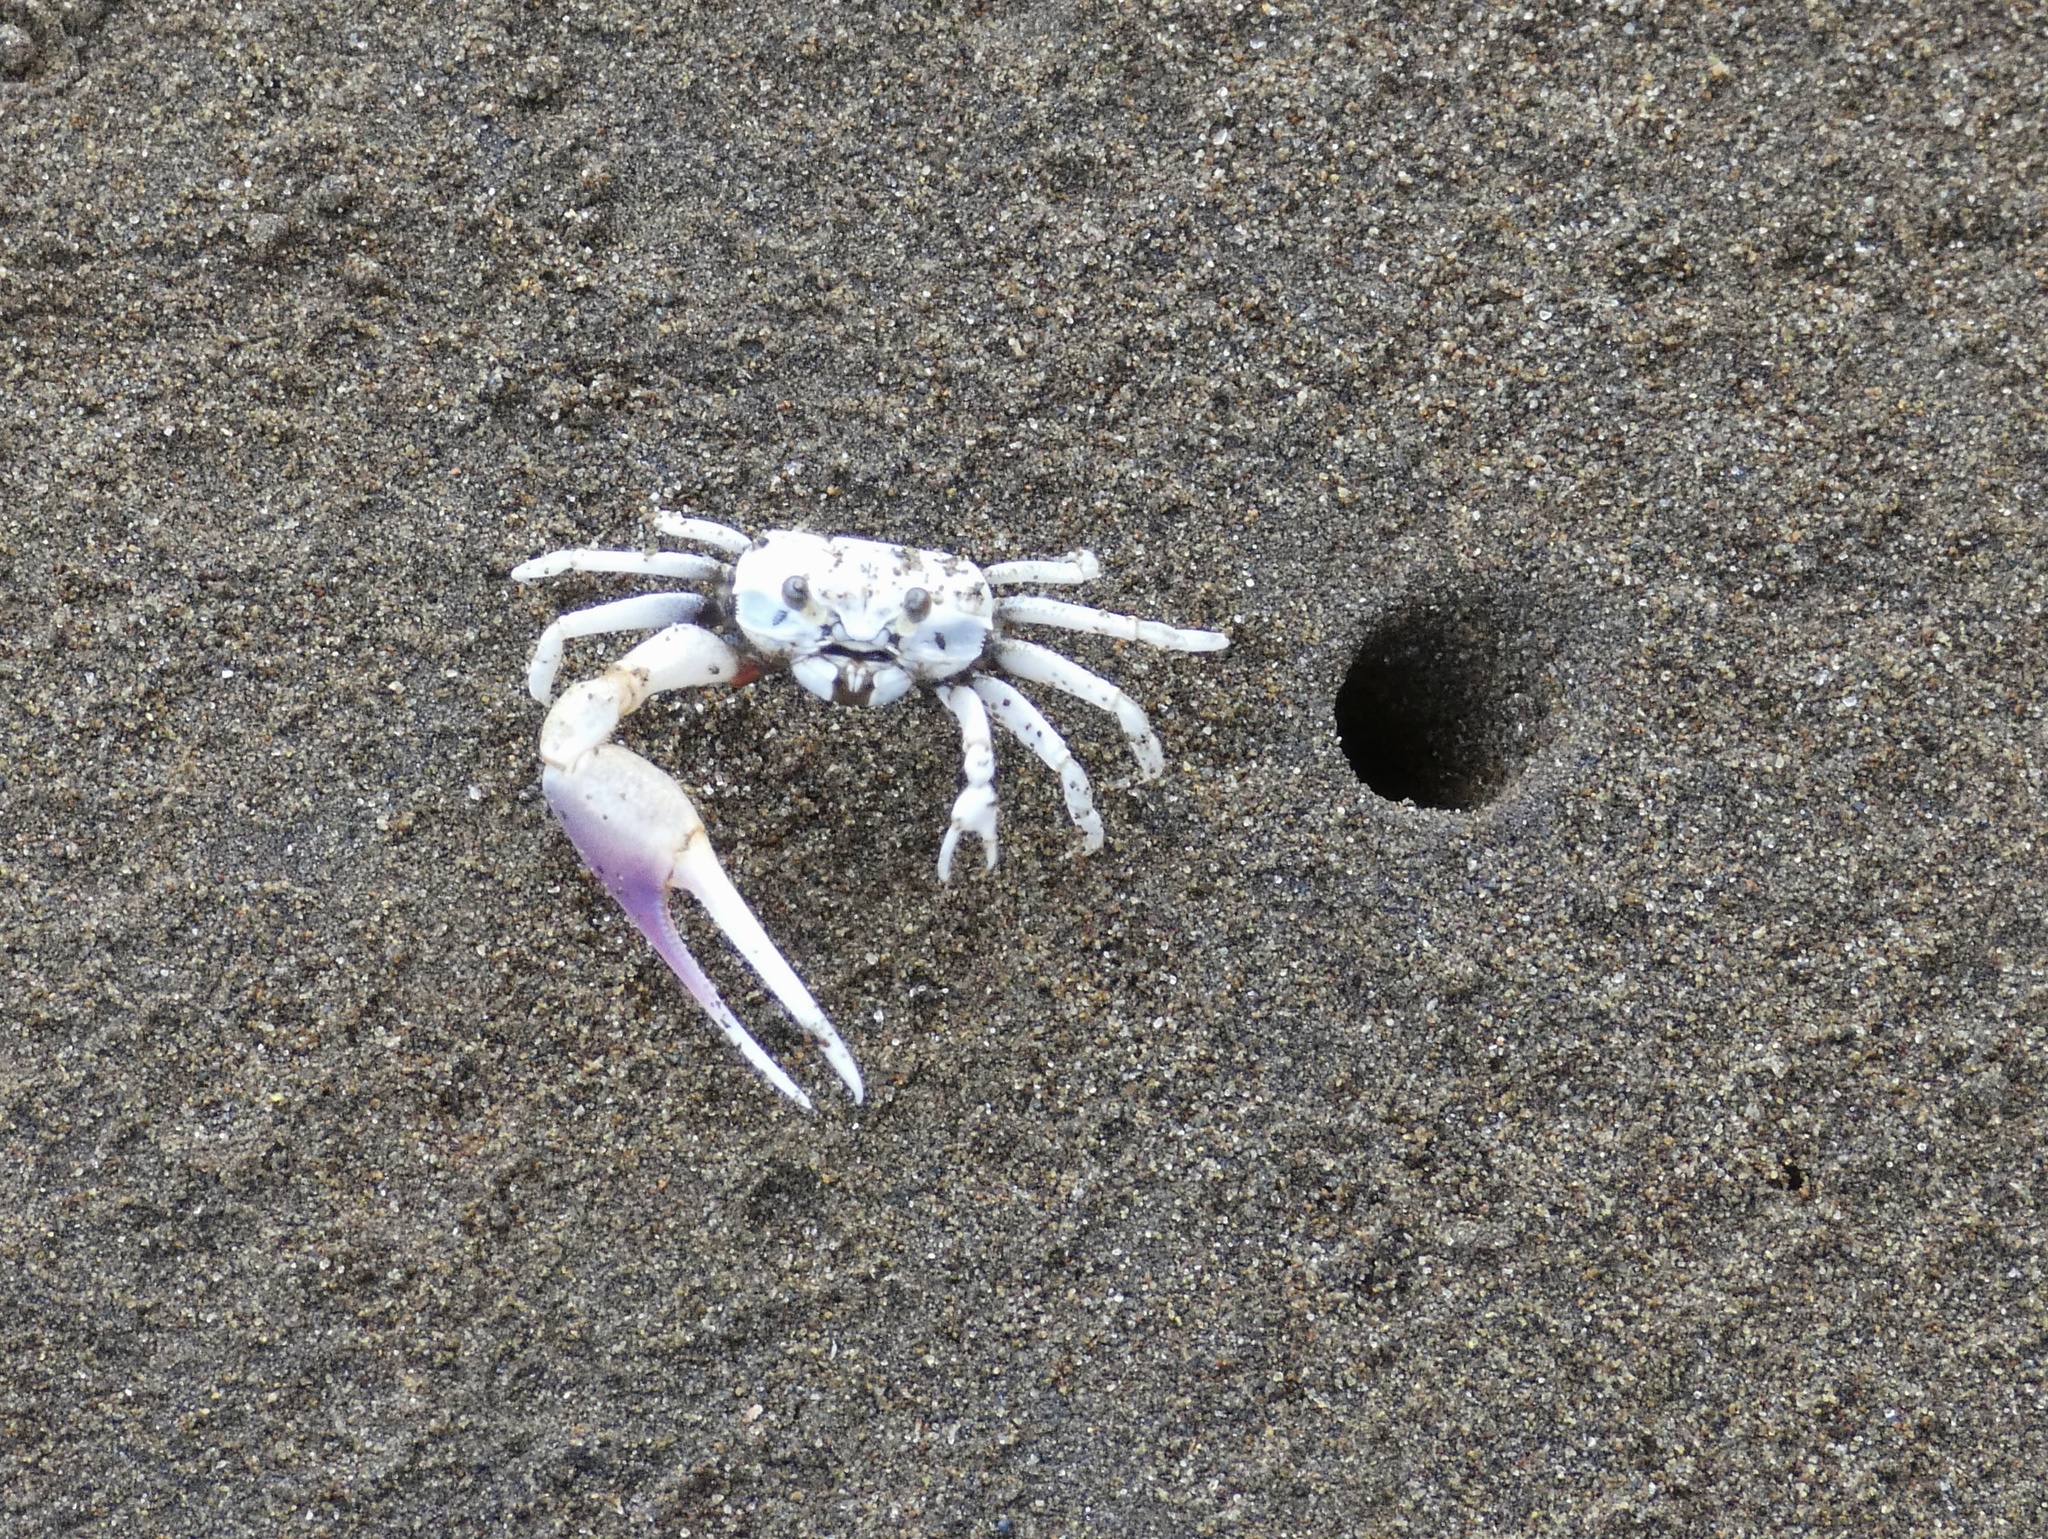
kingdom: Animalia
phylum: Arthropoda
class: Malacostraca
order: Decapoda
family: Ocypodidae
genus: Leptuca
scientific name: Leptuca terpsichores
